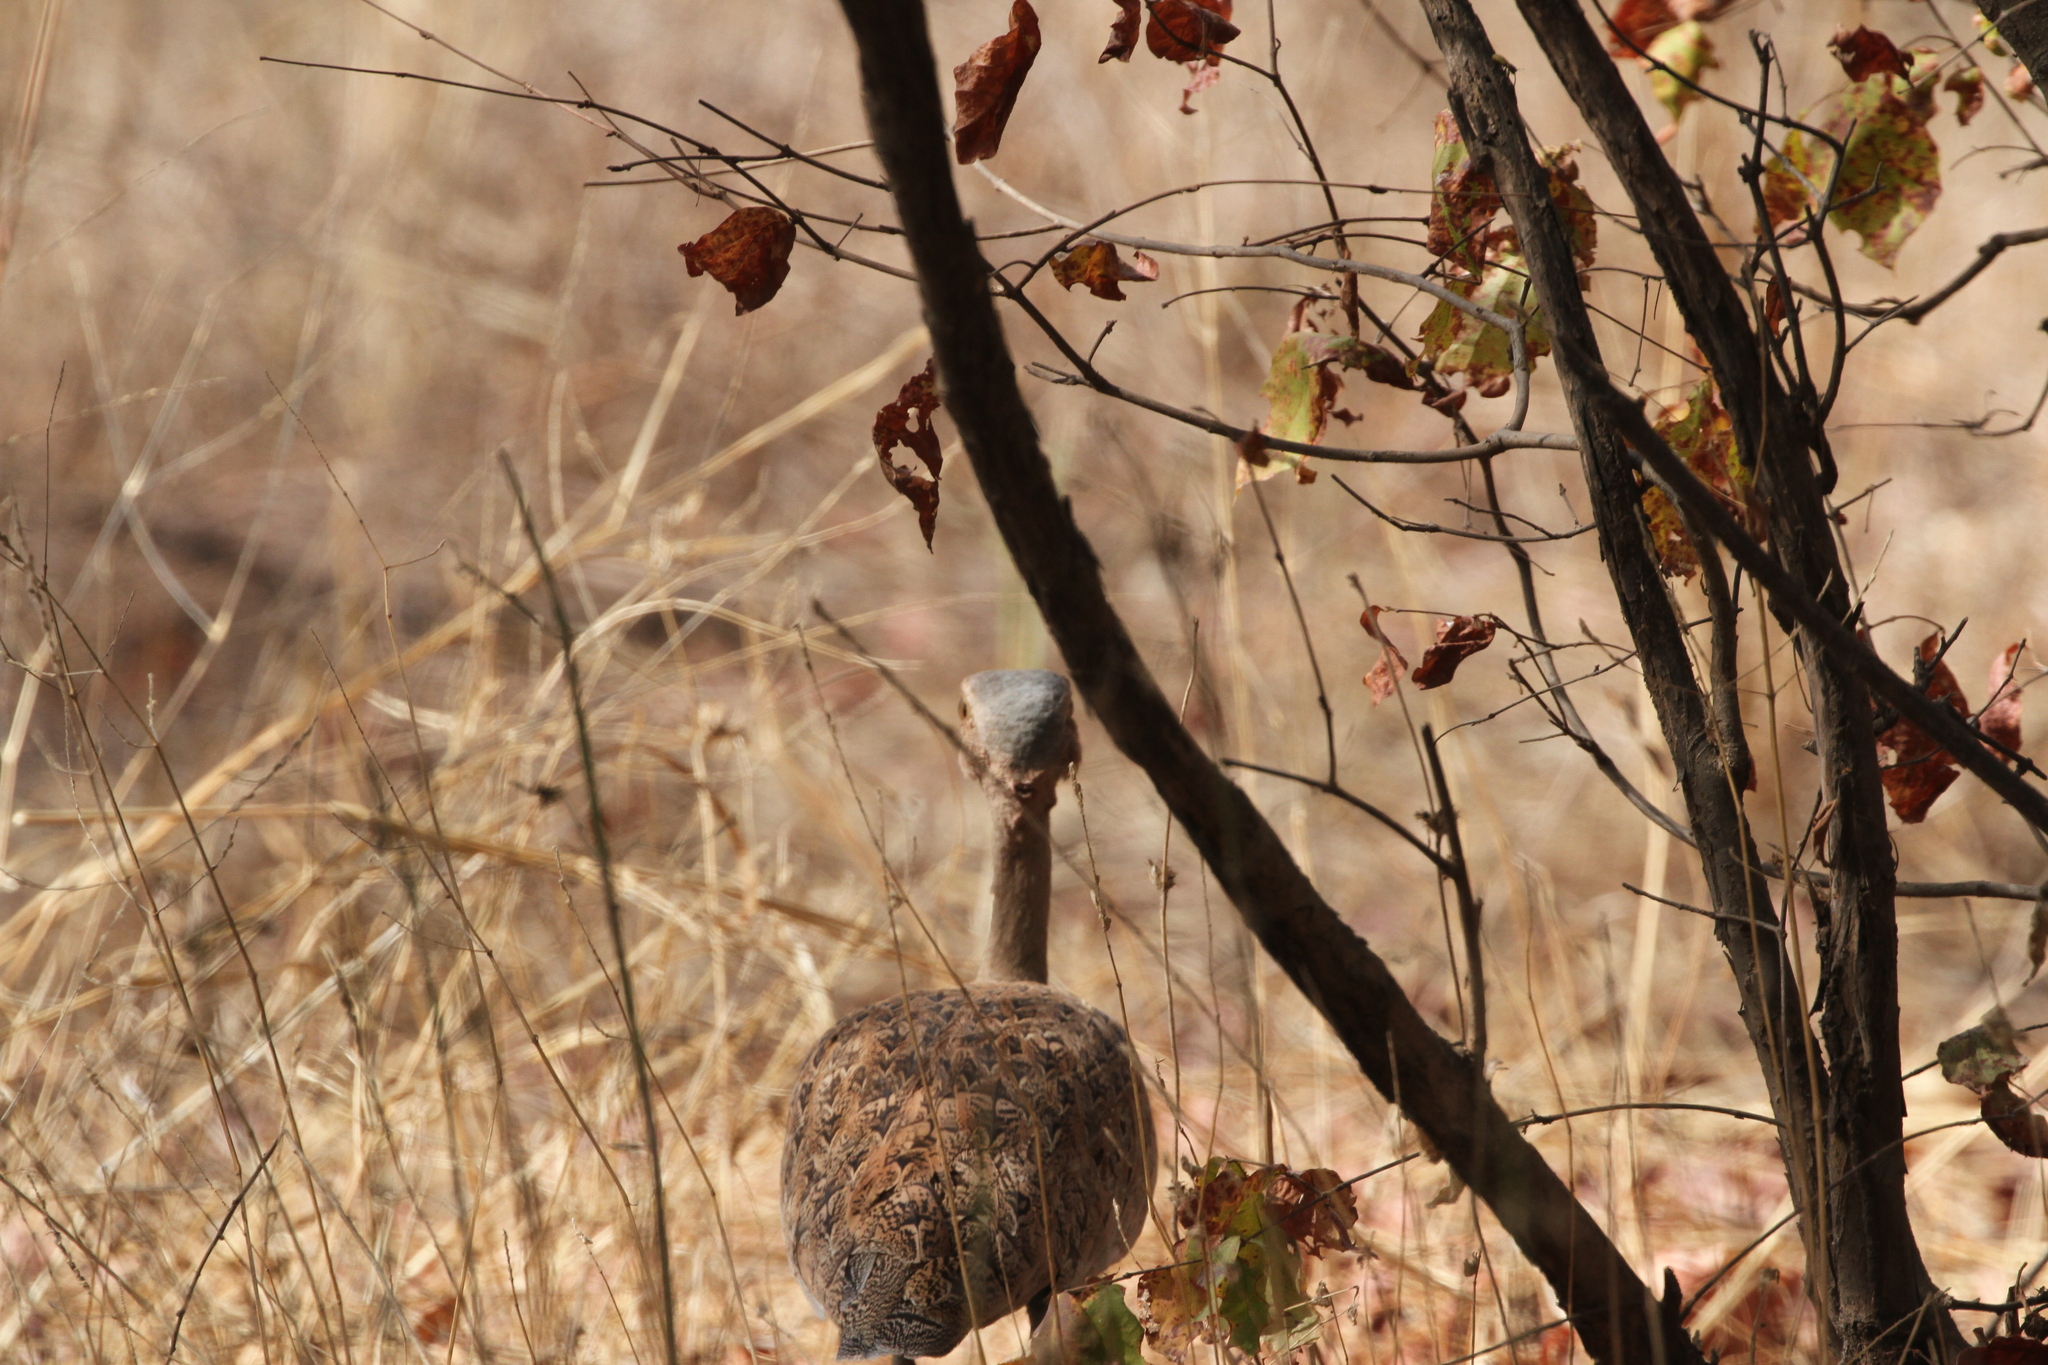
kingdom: Animalia
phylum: Chordata
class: Aves
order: Otidiformes
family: Otididae
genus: Lophotis
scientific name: Lophotis savilei
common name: Savile's bustard
